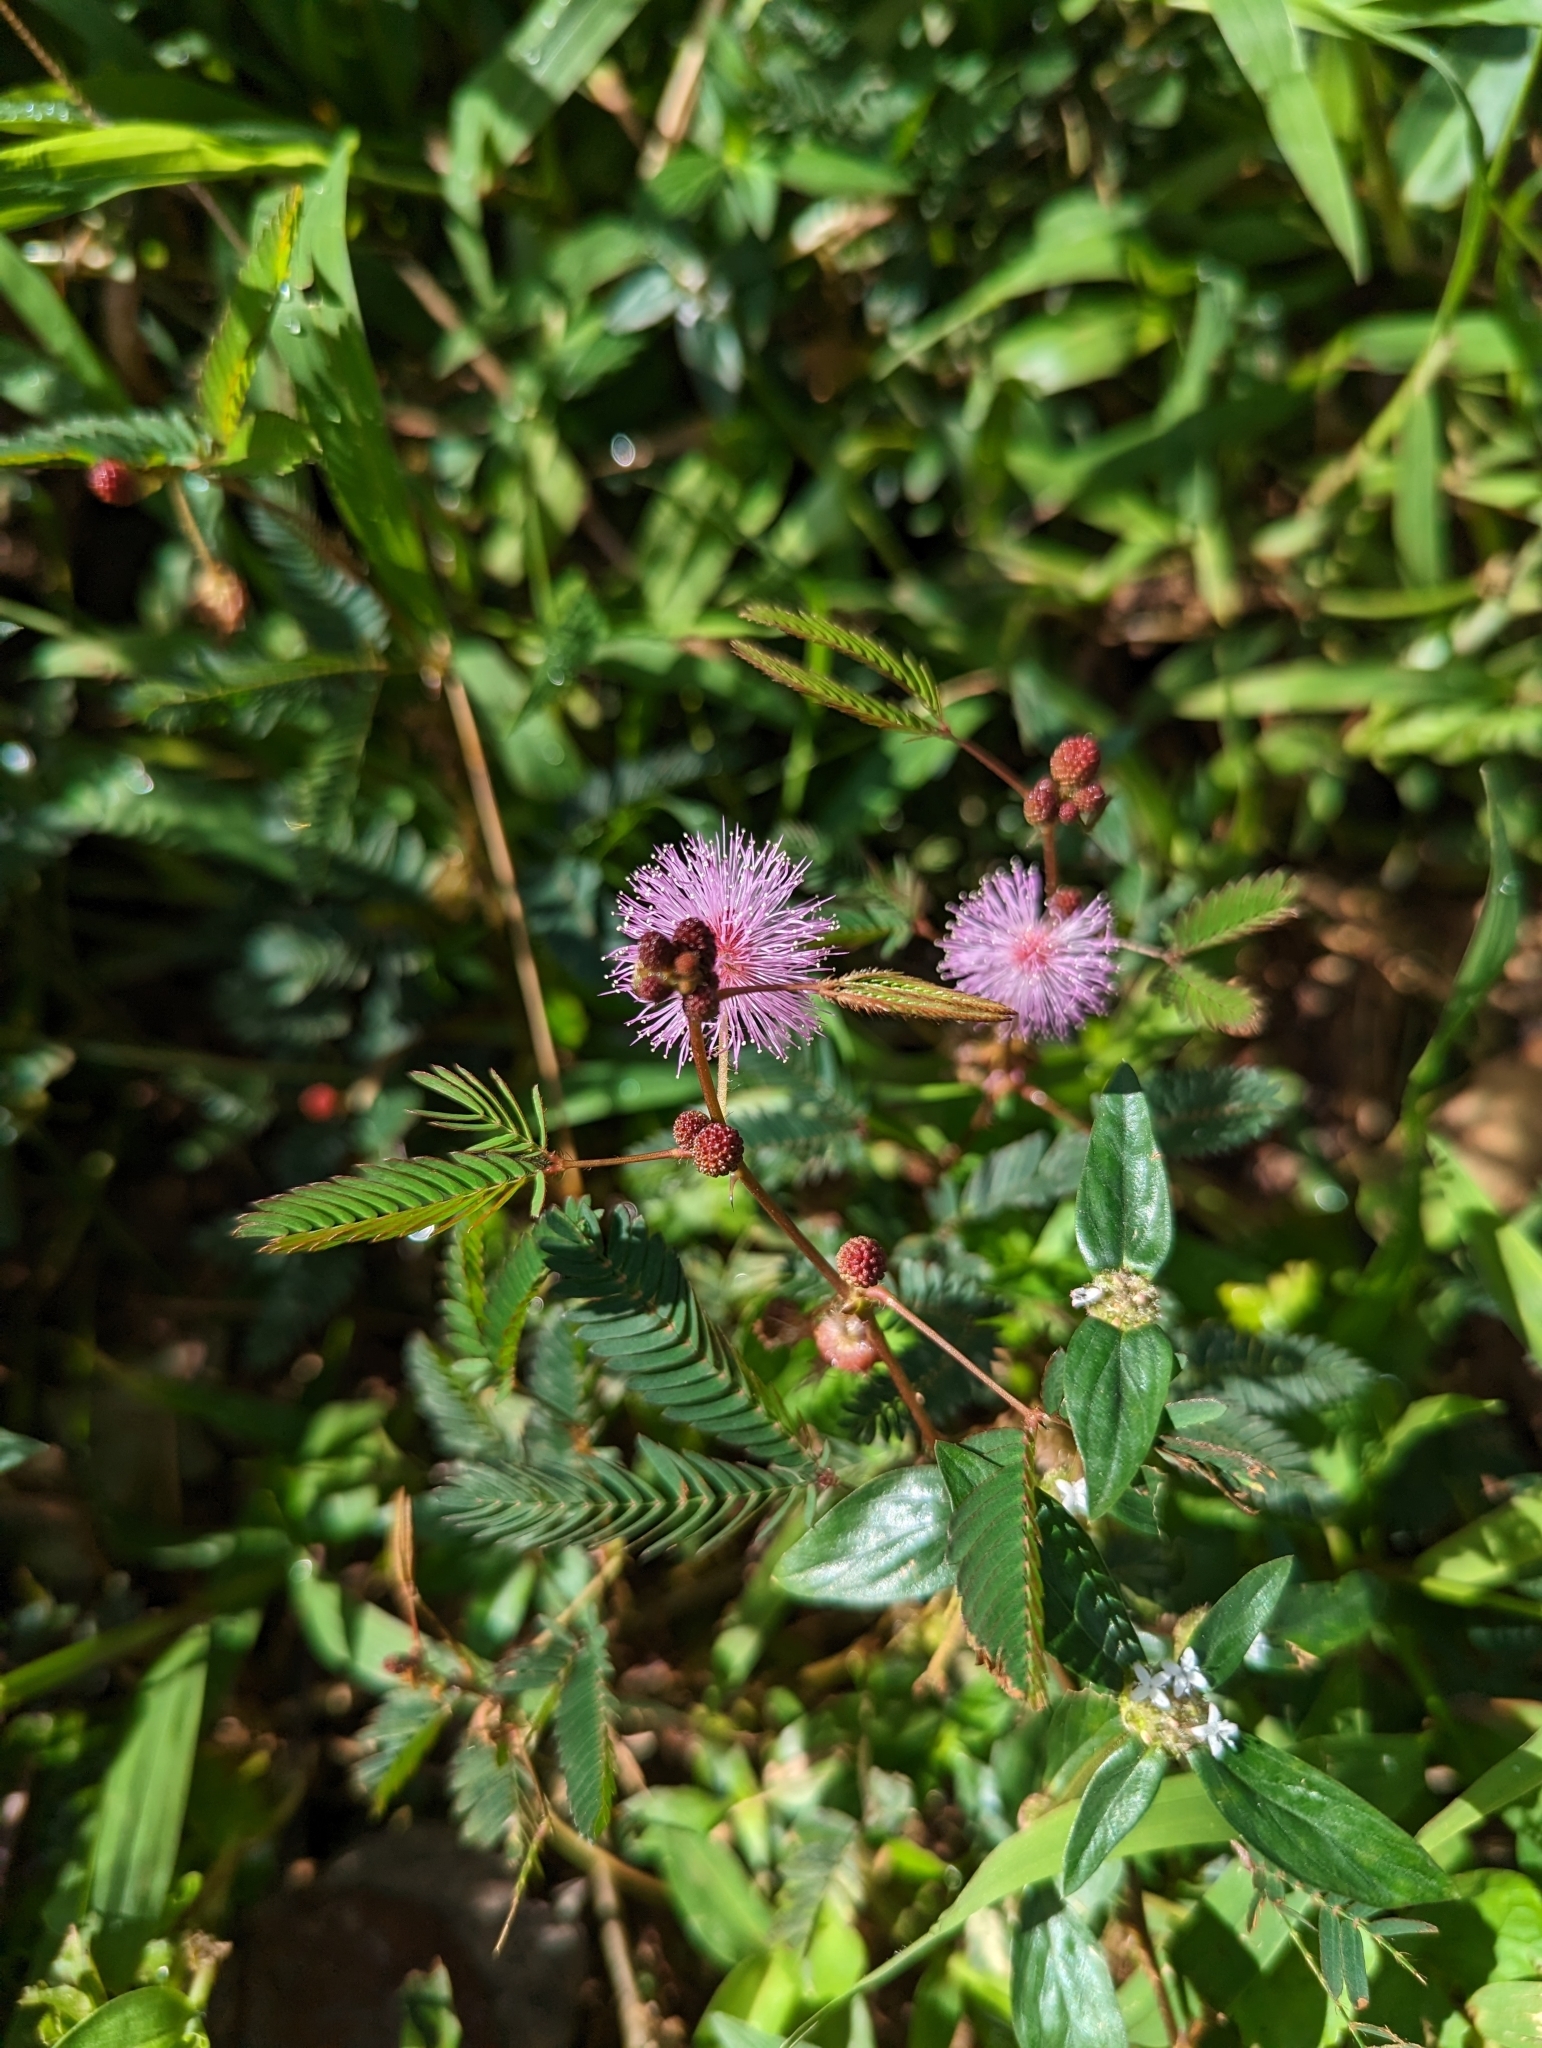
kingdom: Plantae
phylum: Tracheophyta
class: Magnoliopsida
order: Fabales
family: Fabaceae
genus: Mimosa
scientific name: Mimosa pudica
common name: Sensitive plant
